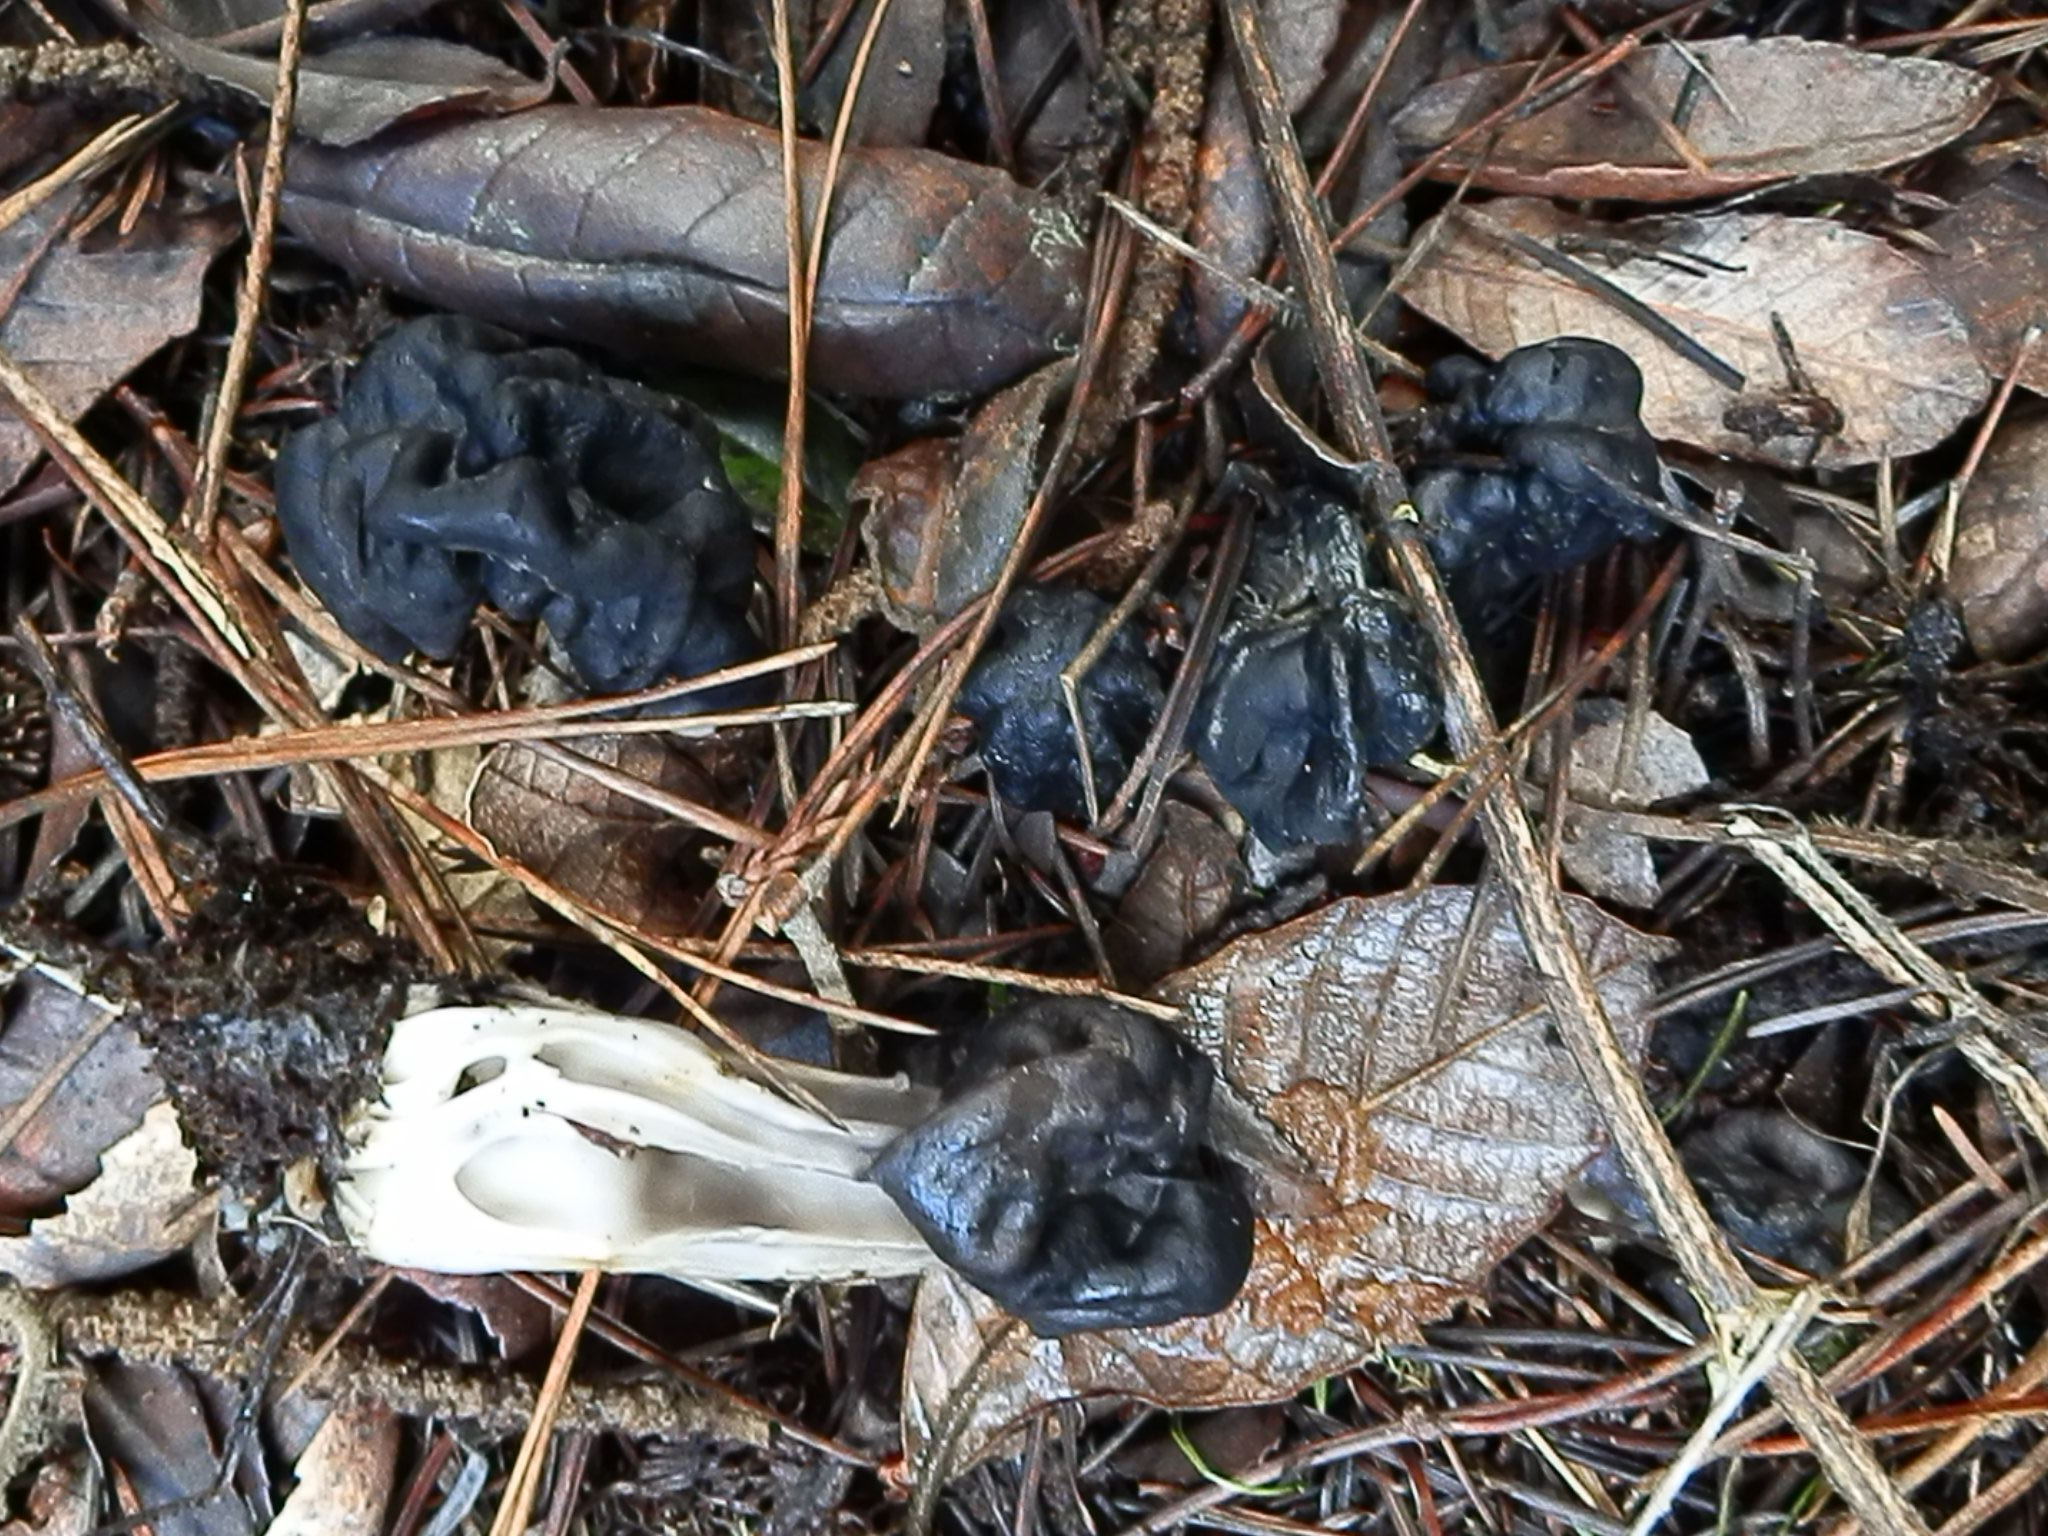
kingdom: Fungi
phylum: Ascomycota
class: Pezizomycetes
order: Pezizales
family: Helvellaceae
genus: Helvella
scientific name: Helvella vespertina
